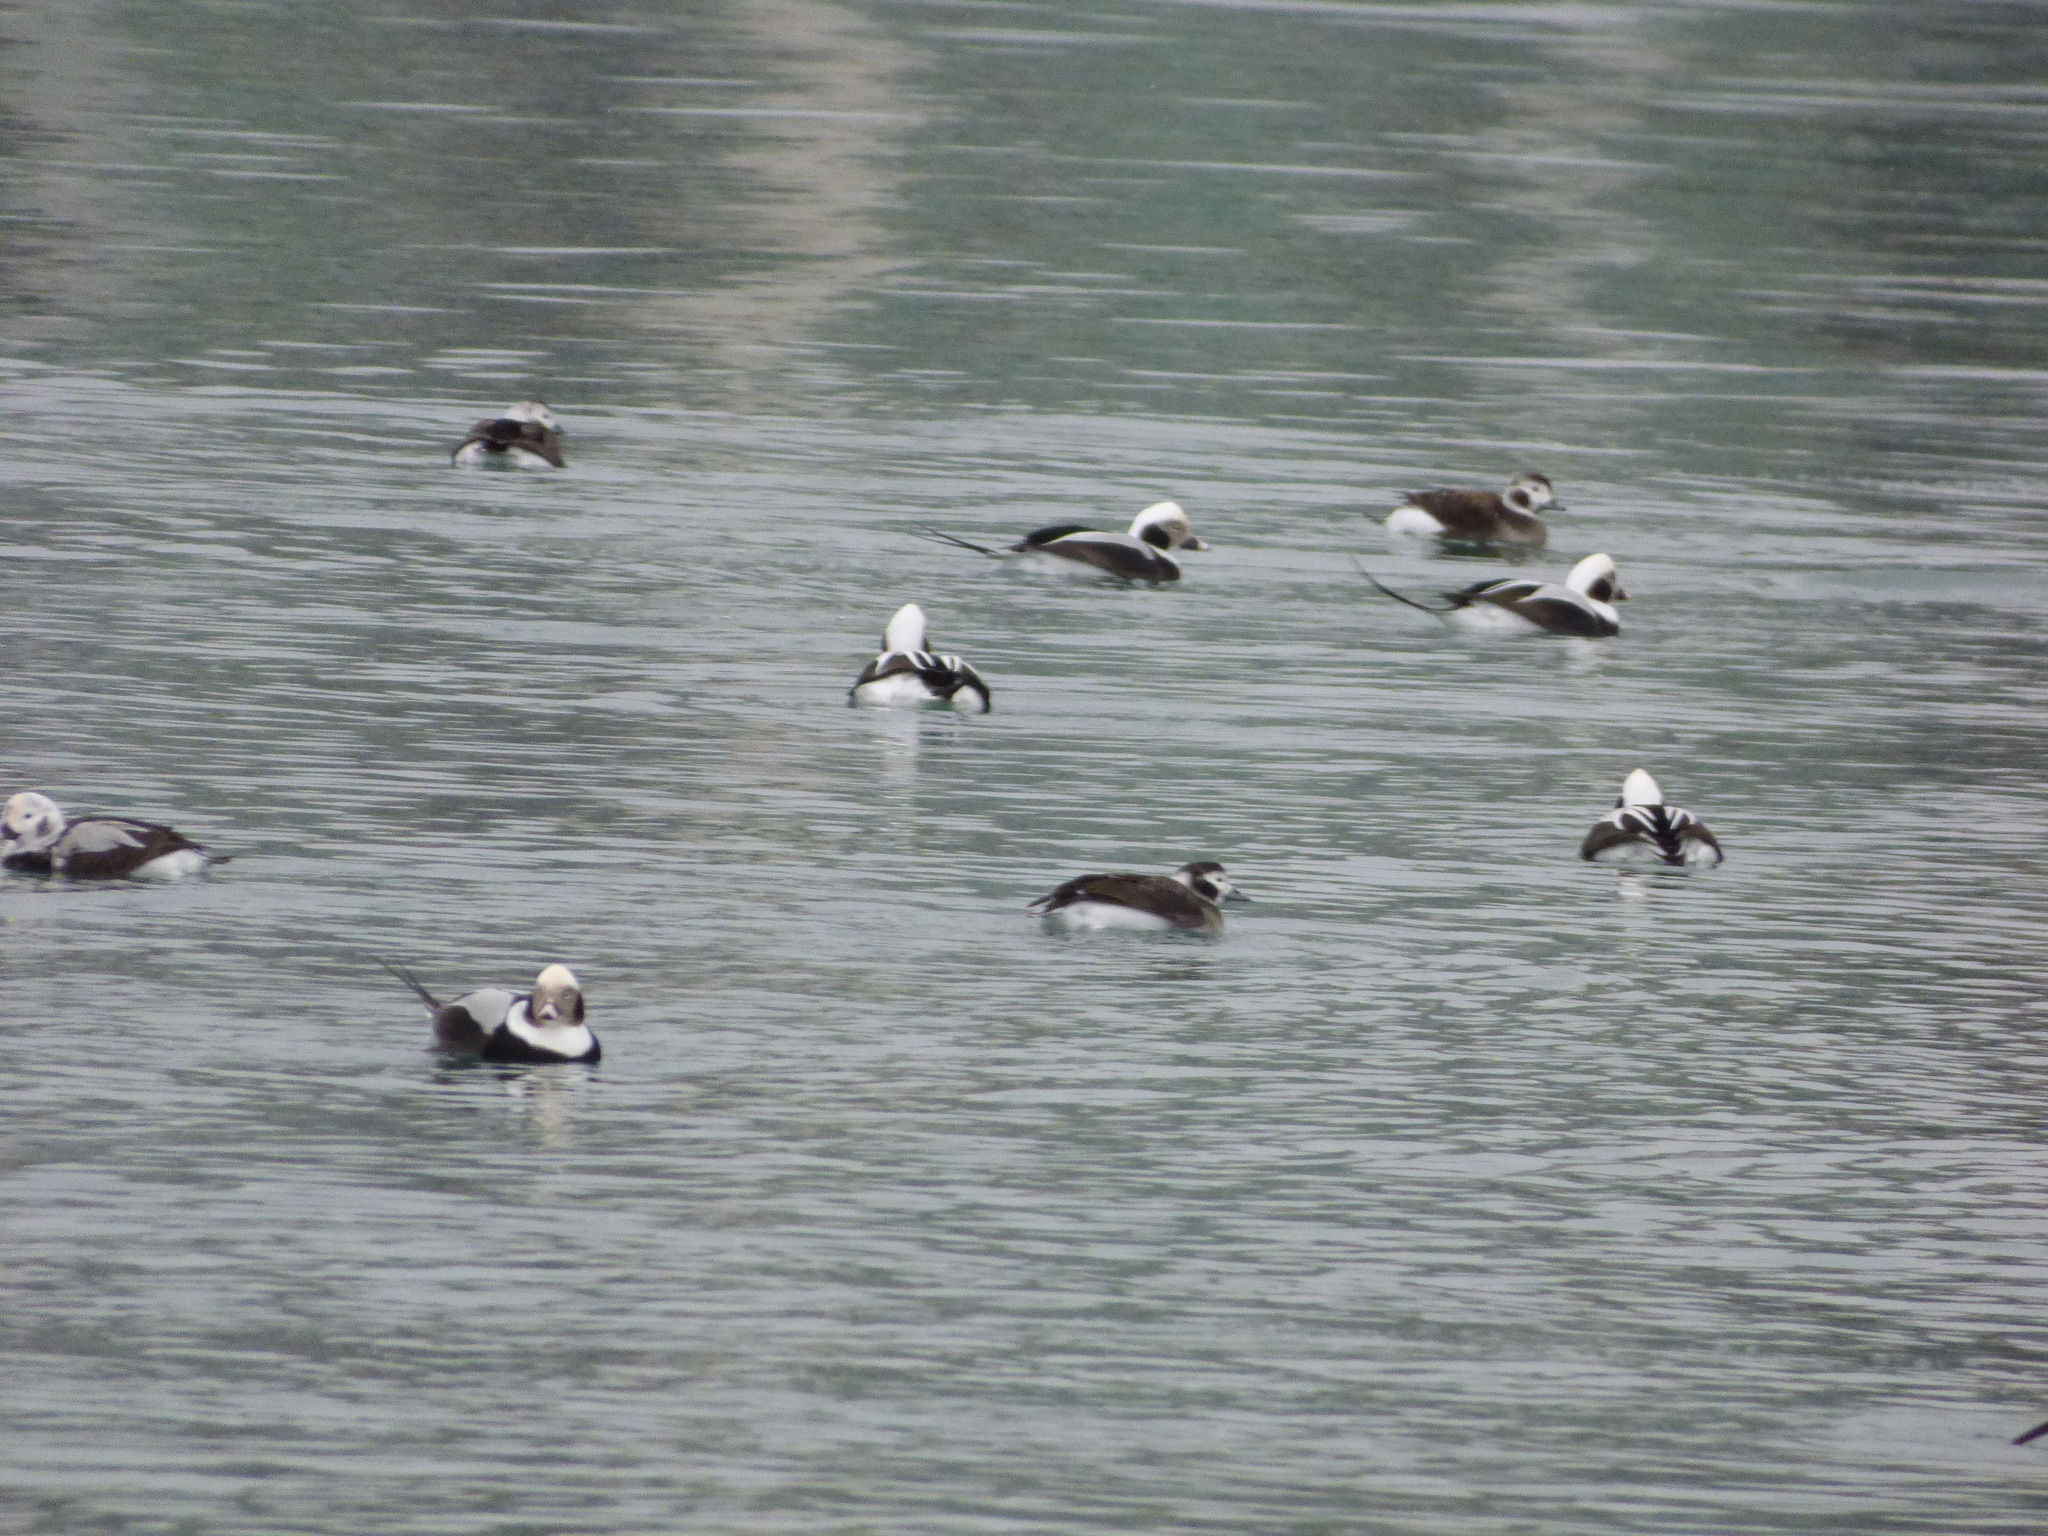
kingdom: Animalia
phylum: Chordata
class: Aves
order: Anseriformes
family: Anatidae
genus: Clangula
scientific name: Clangula hyemalis
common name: Long-tailed duck
